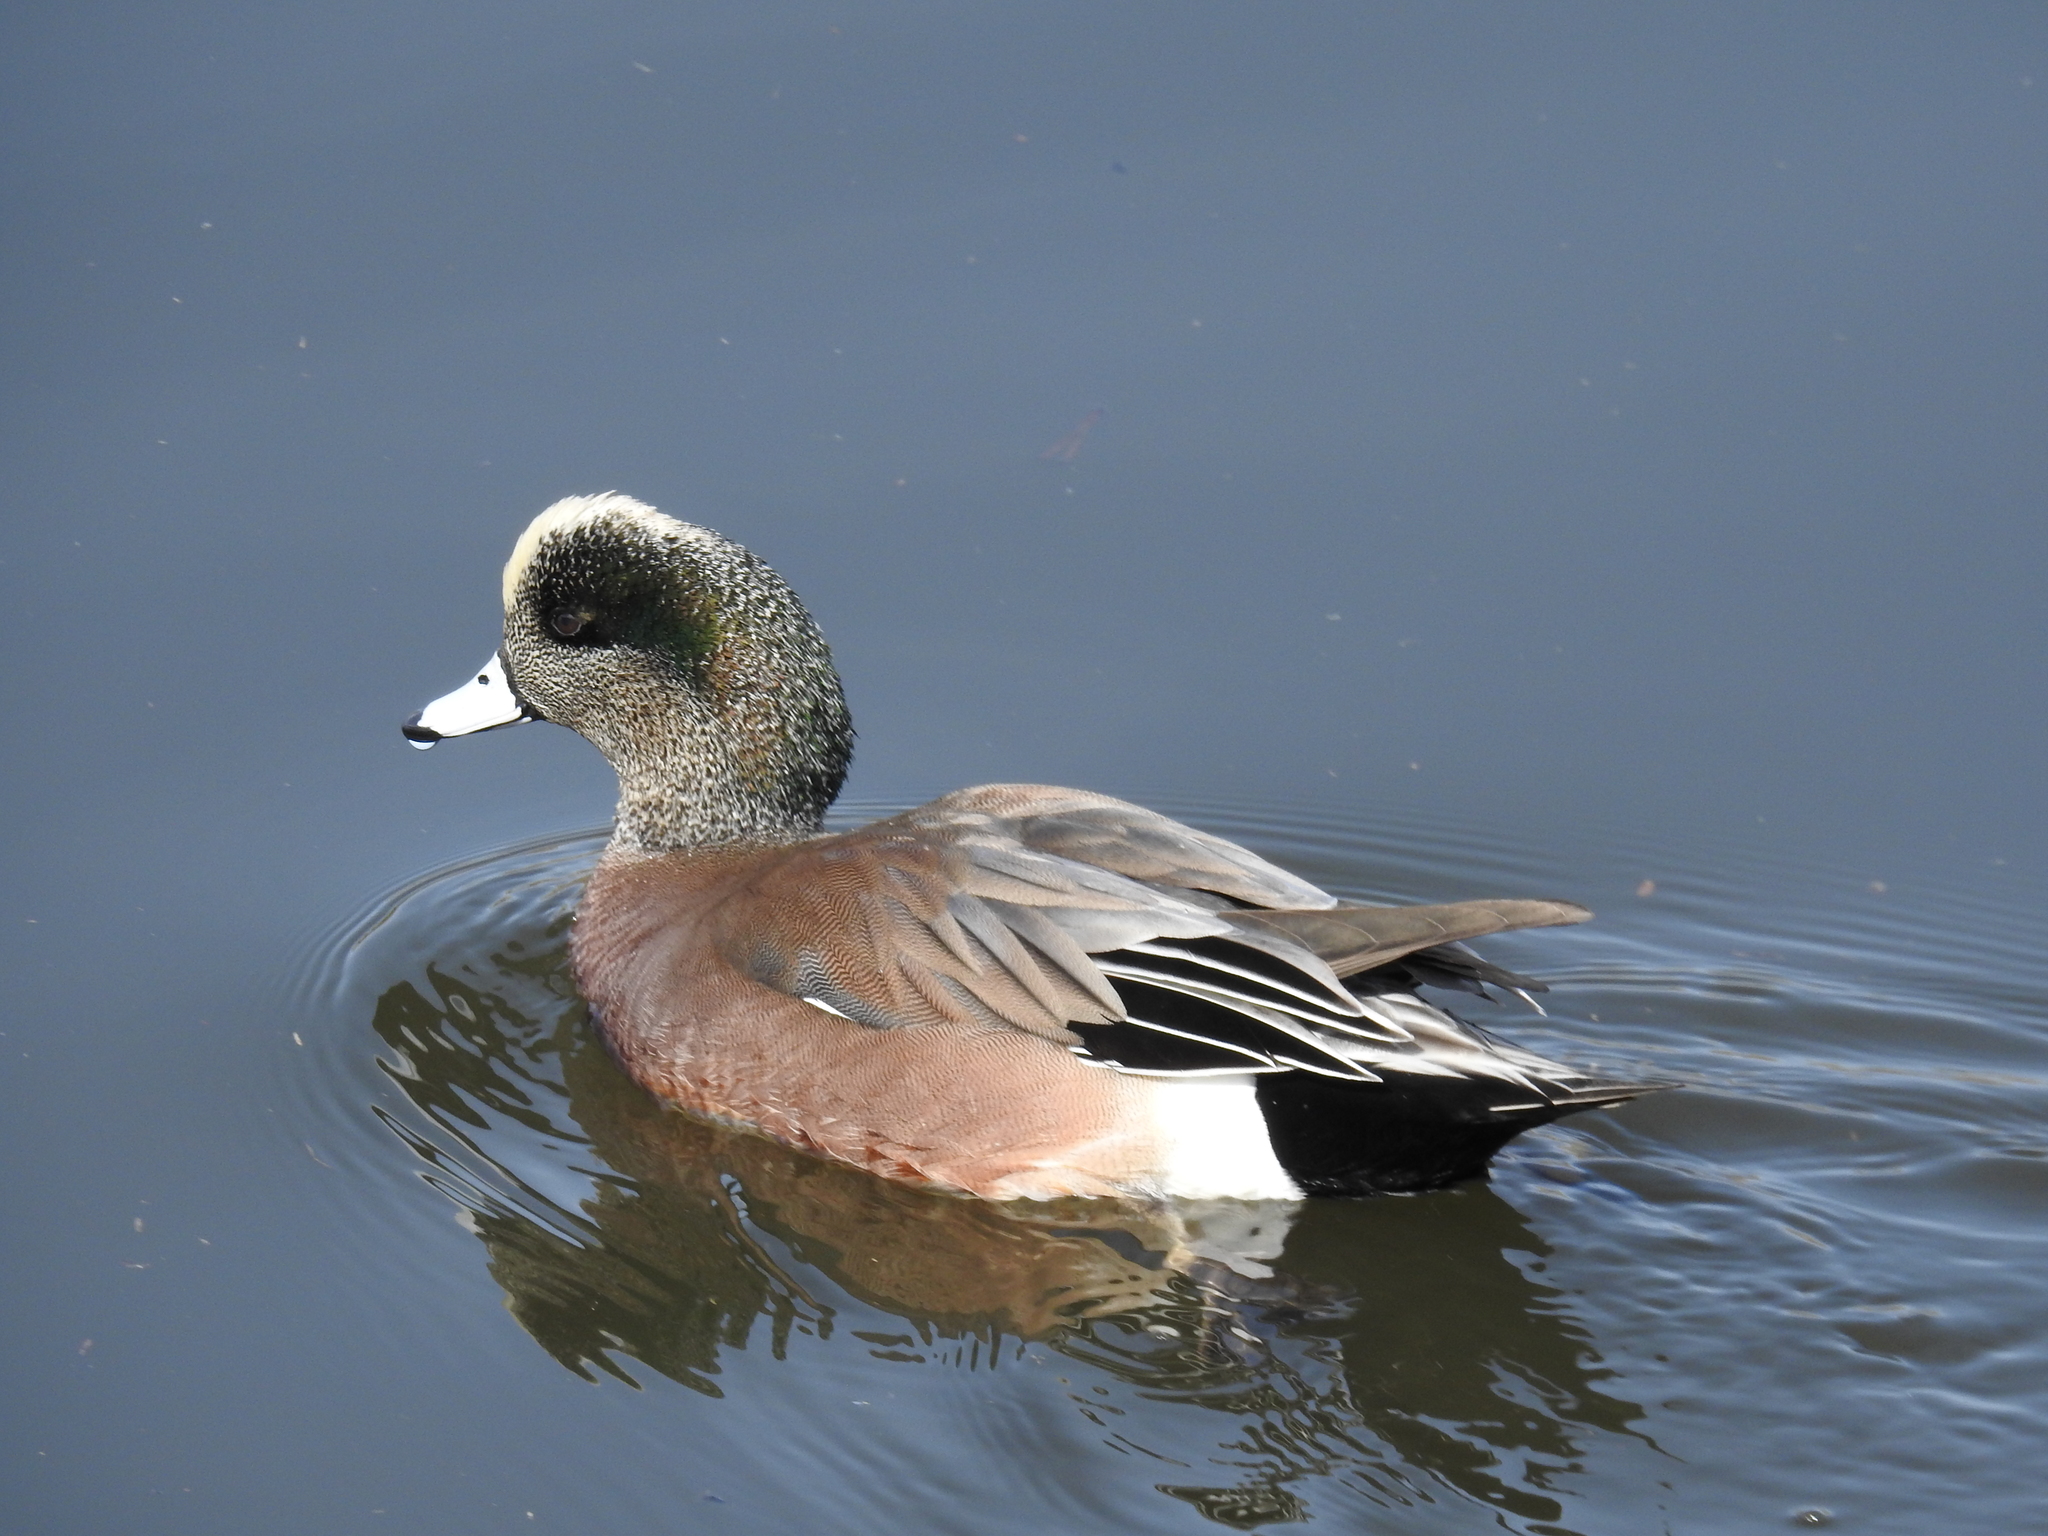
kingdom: Animalia
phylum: Chordata
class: Aves
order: Anseriformes
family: Anatidae
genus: Mareca
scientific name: Mareca americana
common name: American wigeon
